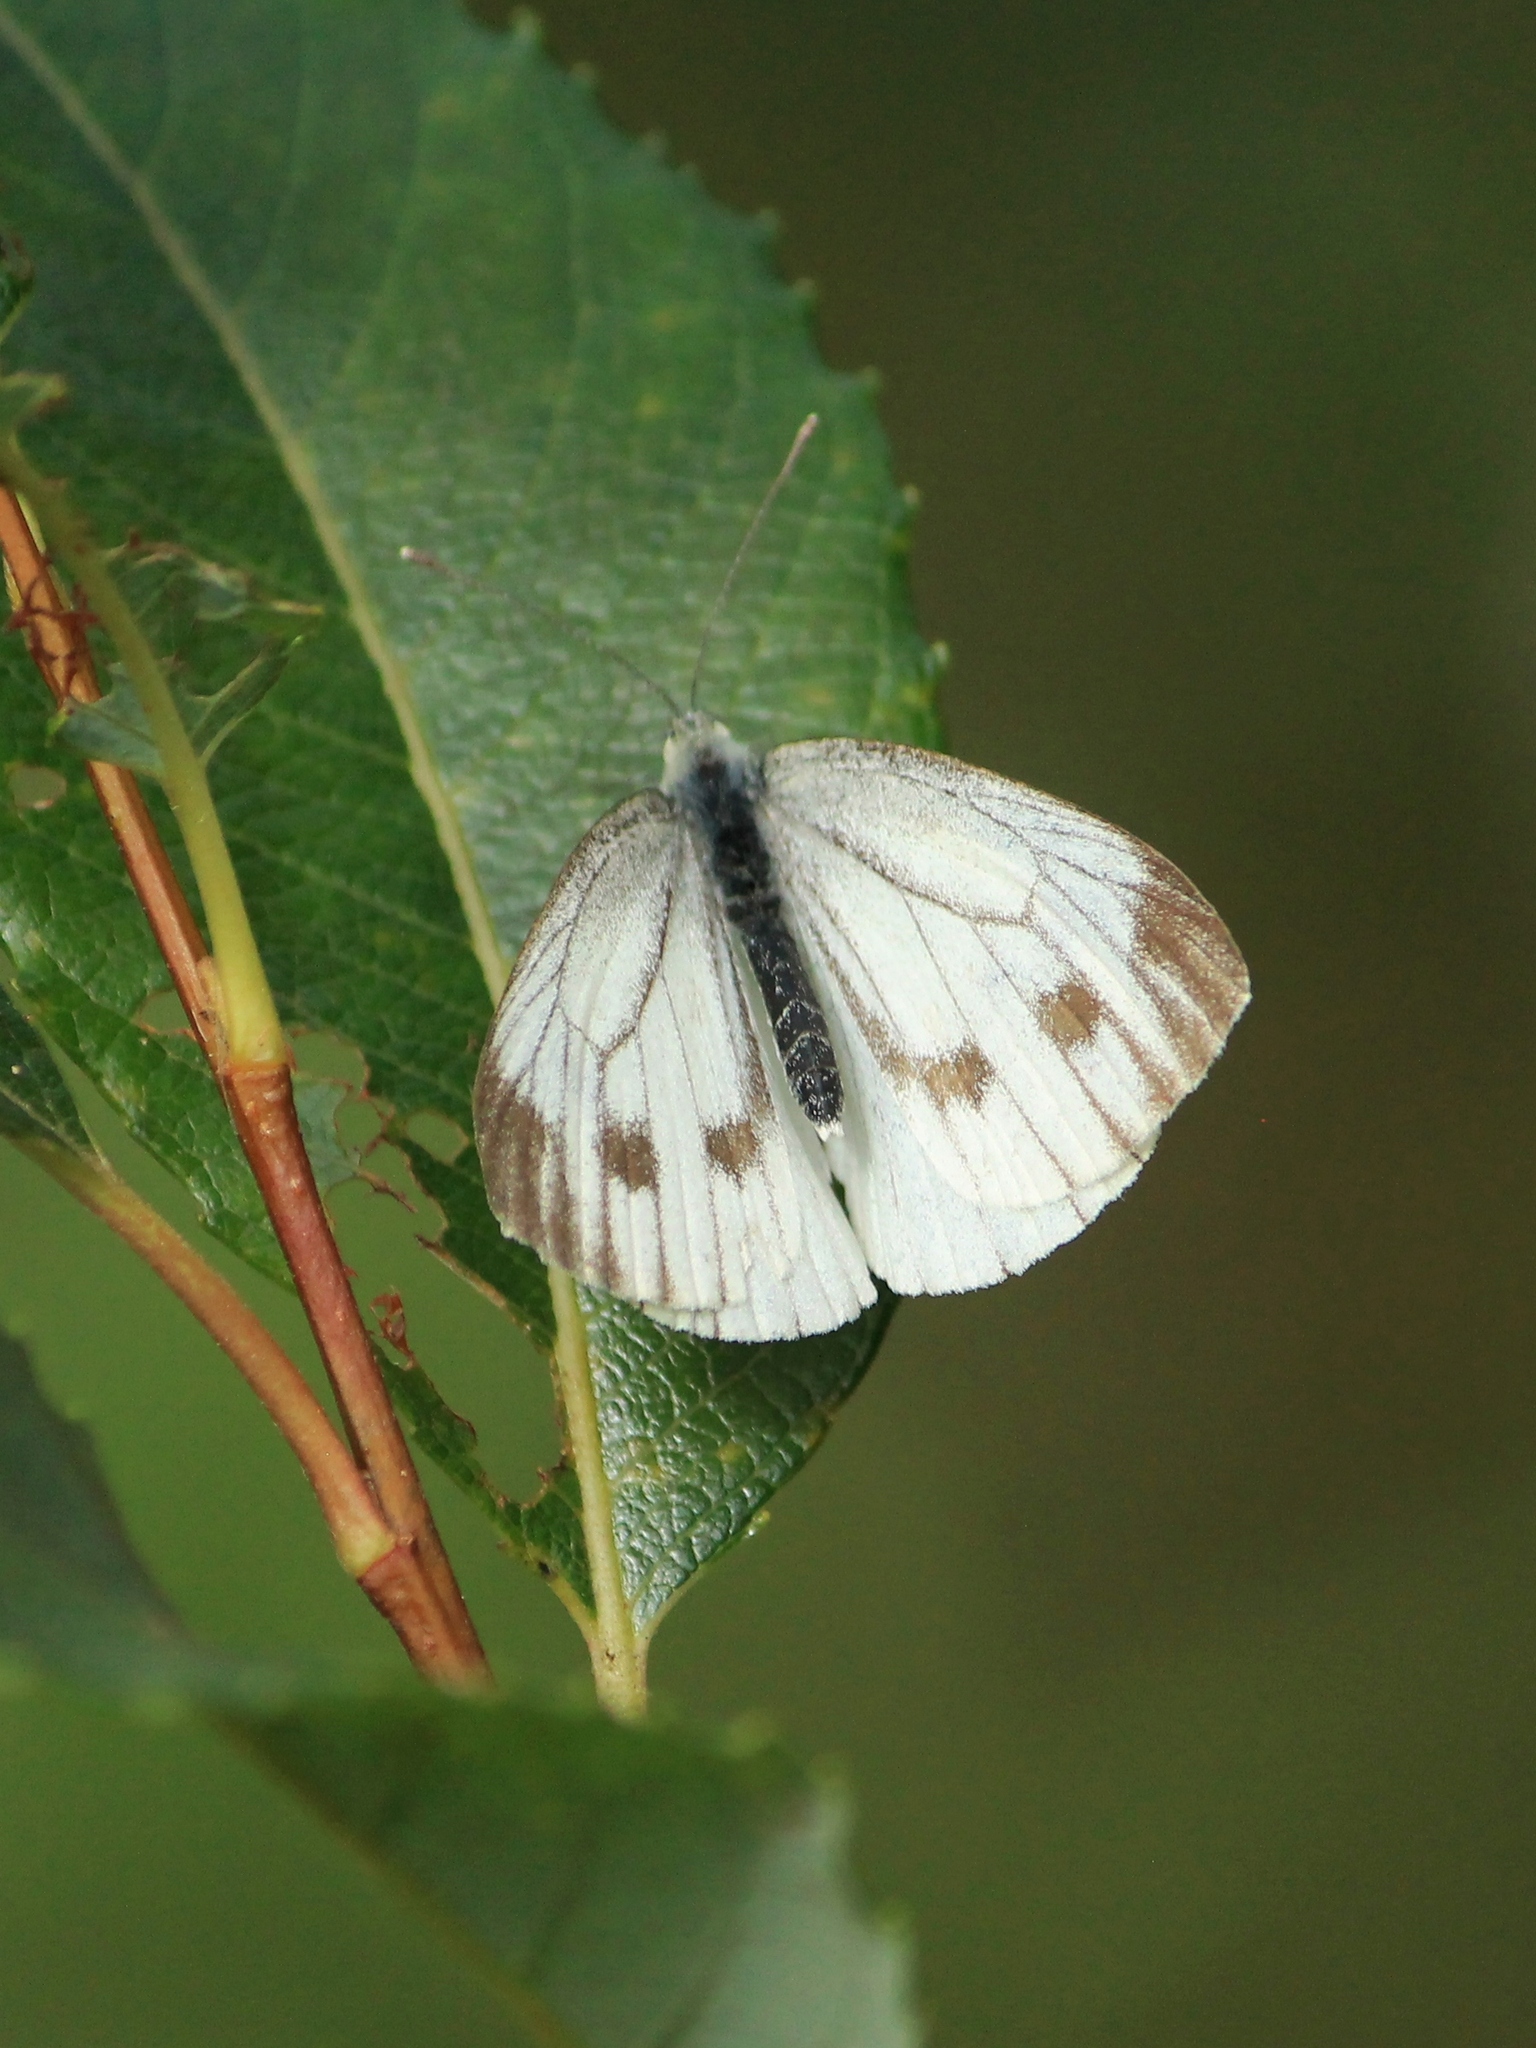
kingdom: Animalia
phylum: Arthropoda
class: Insecta
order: Lepidoptera
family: Pieridae
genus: Pieris
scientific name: Pieris napi
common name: Green-veined white
